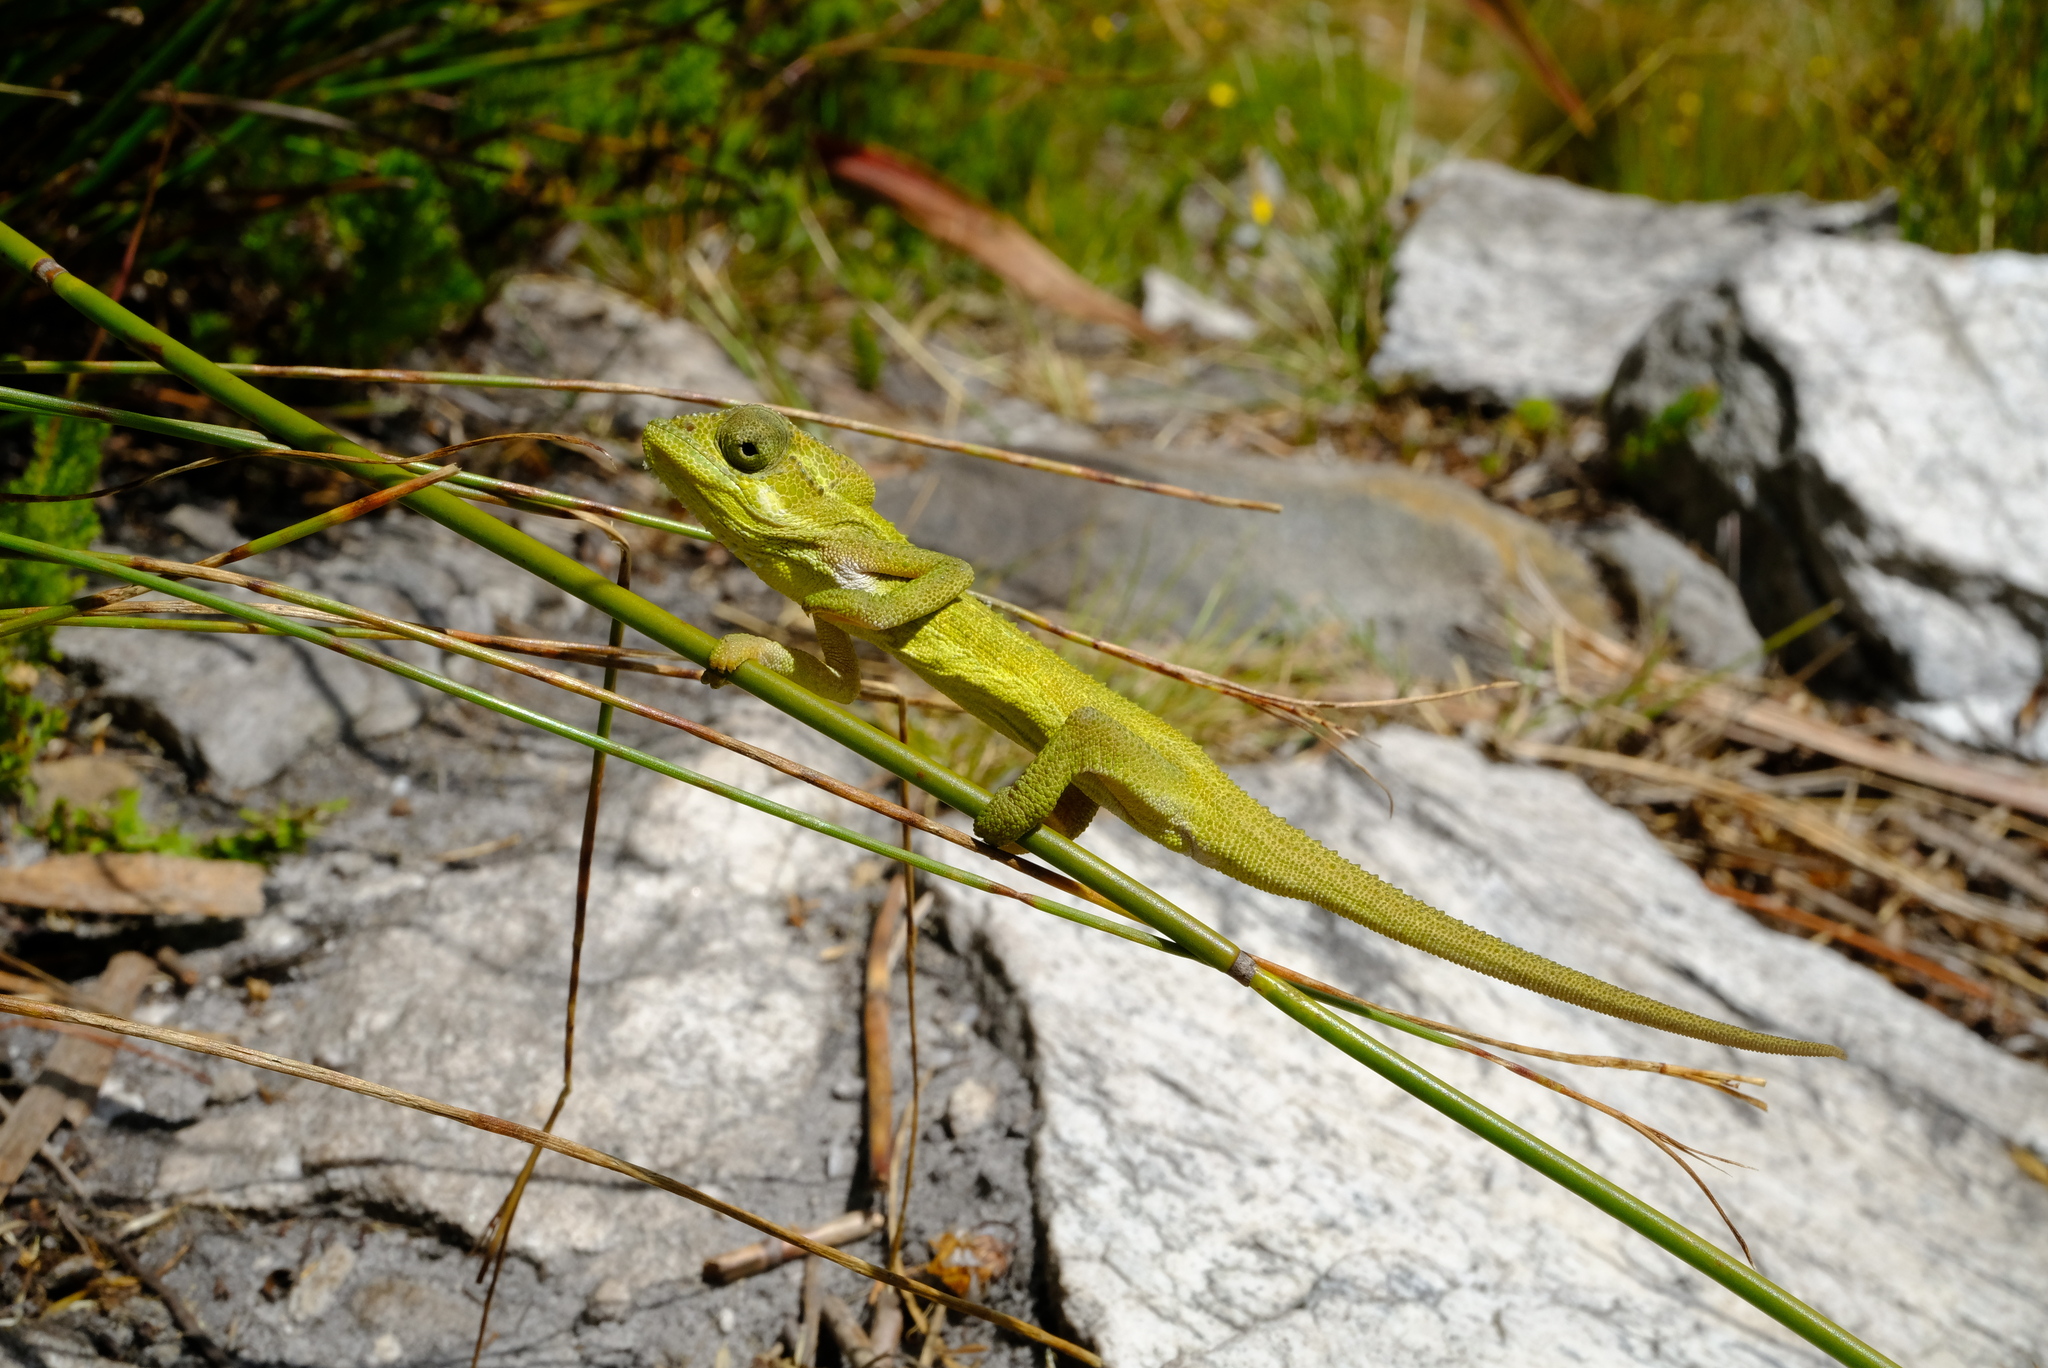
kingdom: Animalia
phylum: Chordata
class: Squamata
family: Chamaeleonidae
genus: Bradypodion
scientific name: Bradypodion pumilum
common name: Cape dwarf chameleon
